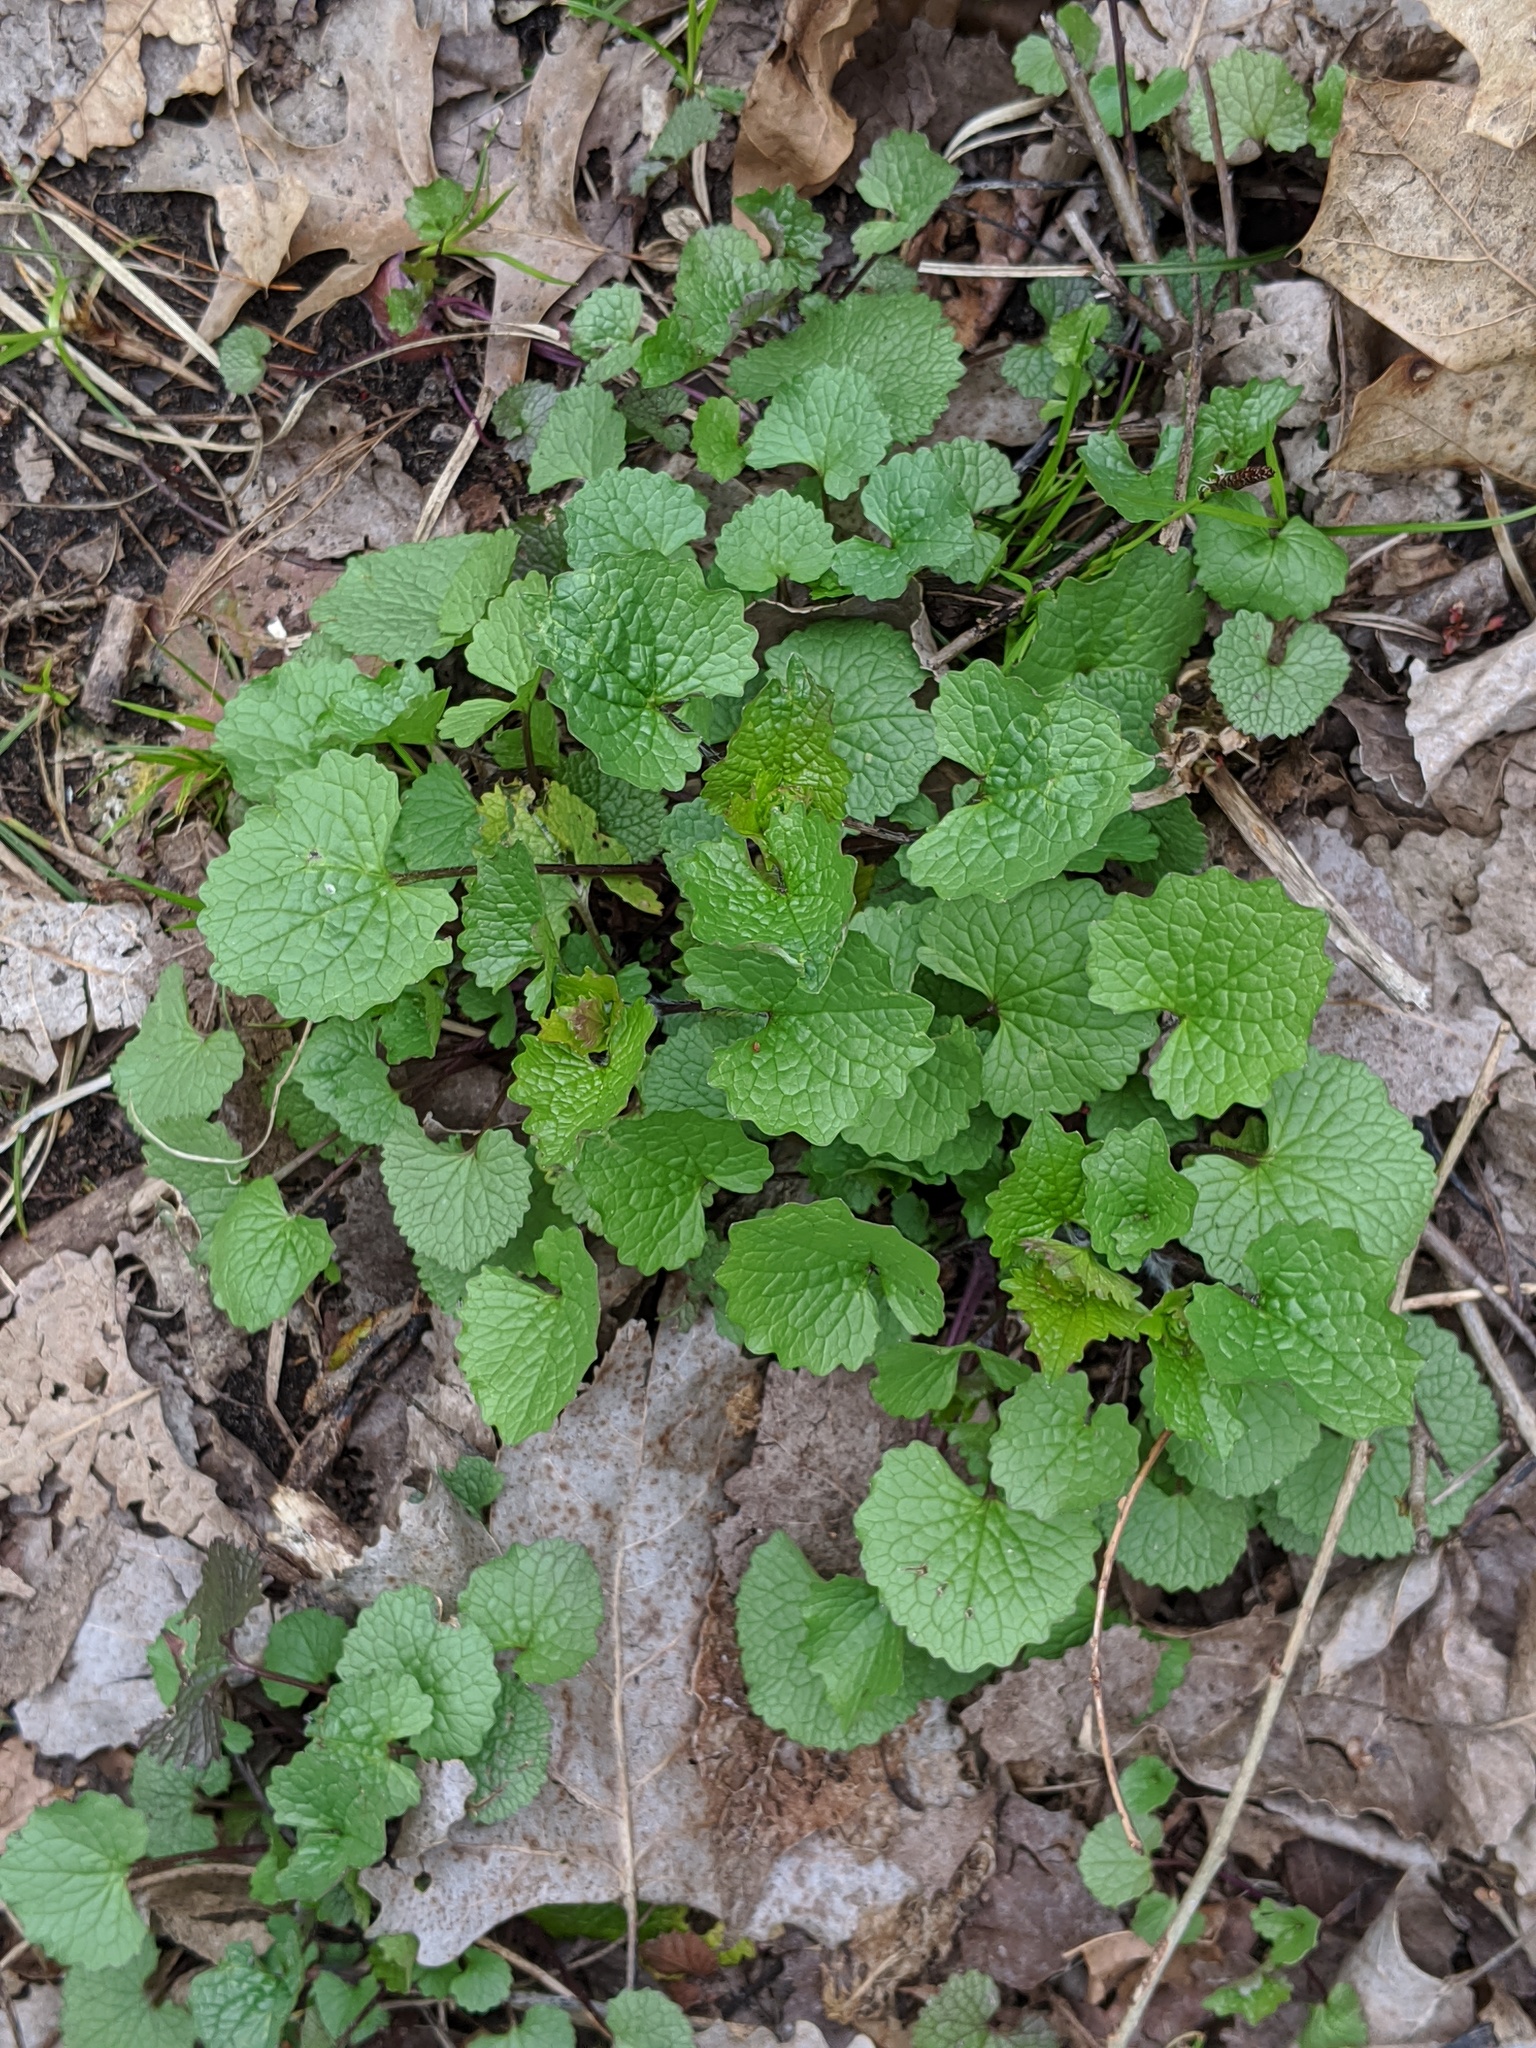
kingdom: Plantae
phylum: Tracheophyta
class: Magnoliopsida
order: Brassicales
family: Brassicaceae
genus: Alliaria
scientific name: Alliaria petiolata
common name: Garlic mustard
